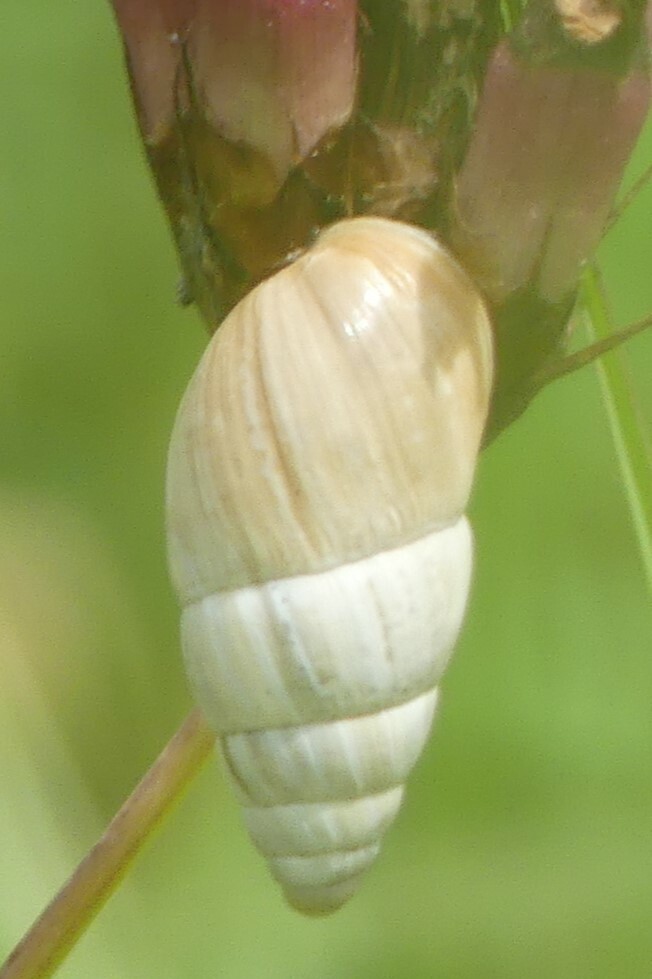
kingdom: Animalia
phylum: Mollusca
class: Gastropoda
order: Stylommatophora
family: Enidae
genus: Zebrina
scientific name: Zebrina detrita
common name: Large bulin
